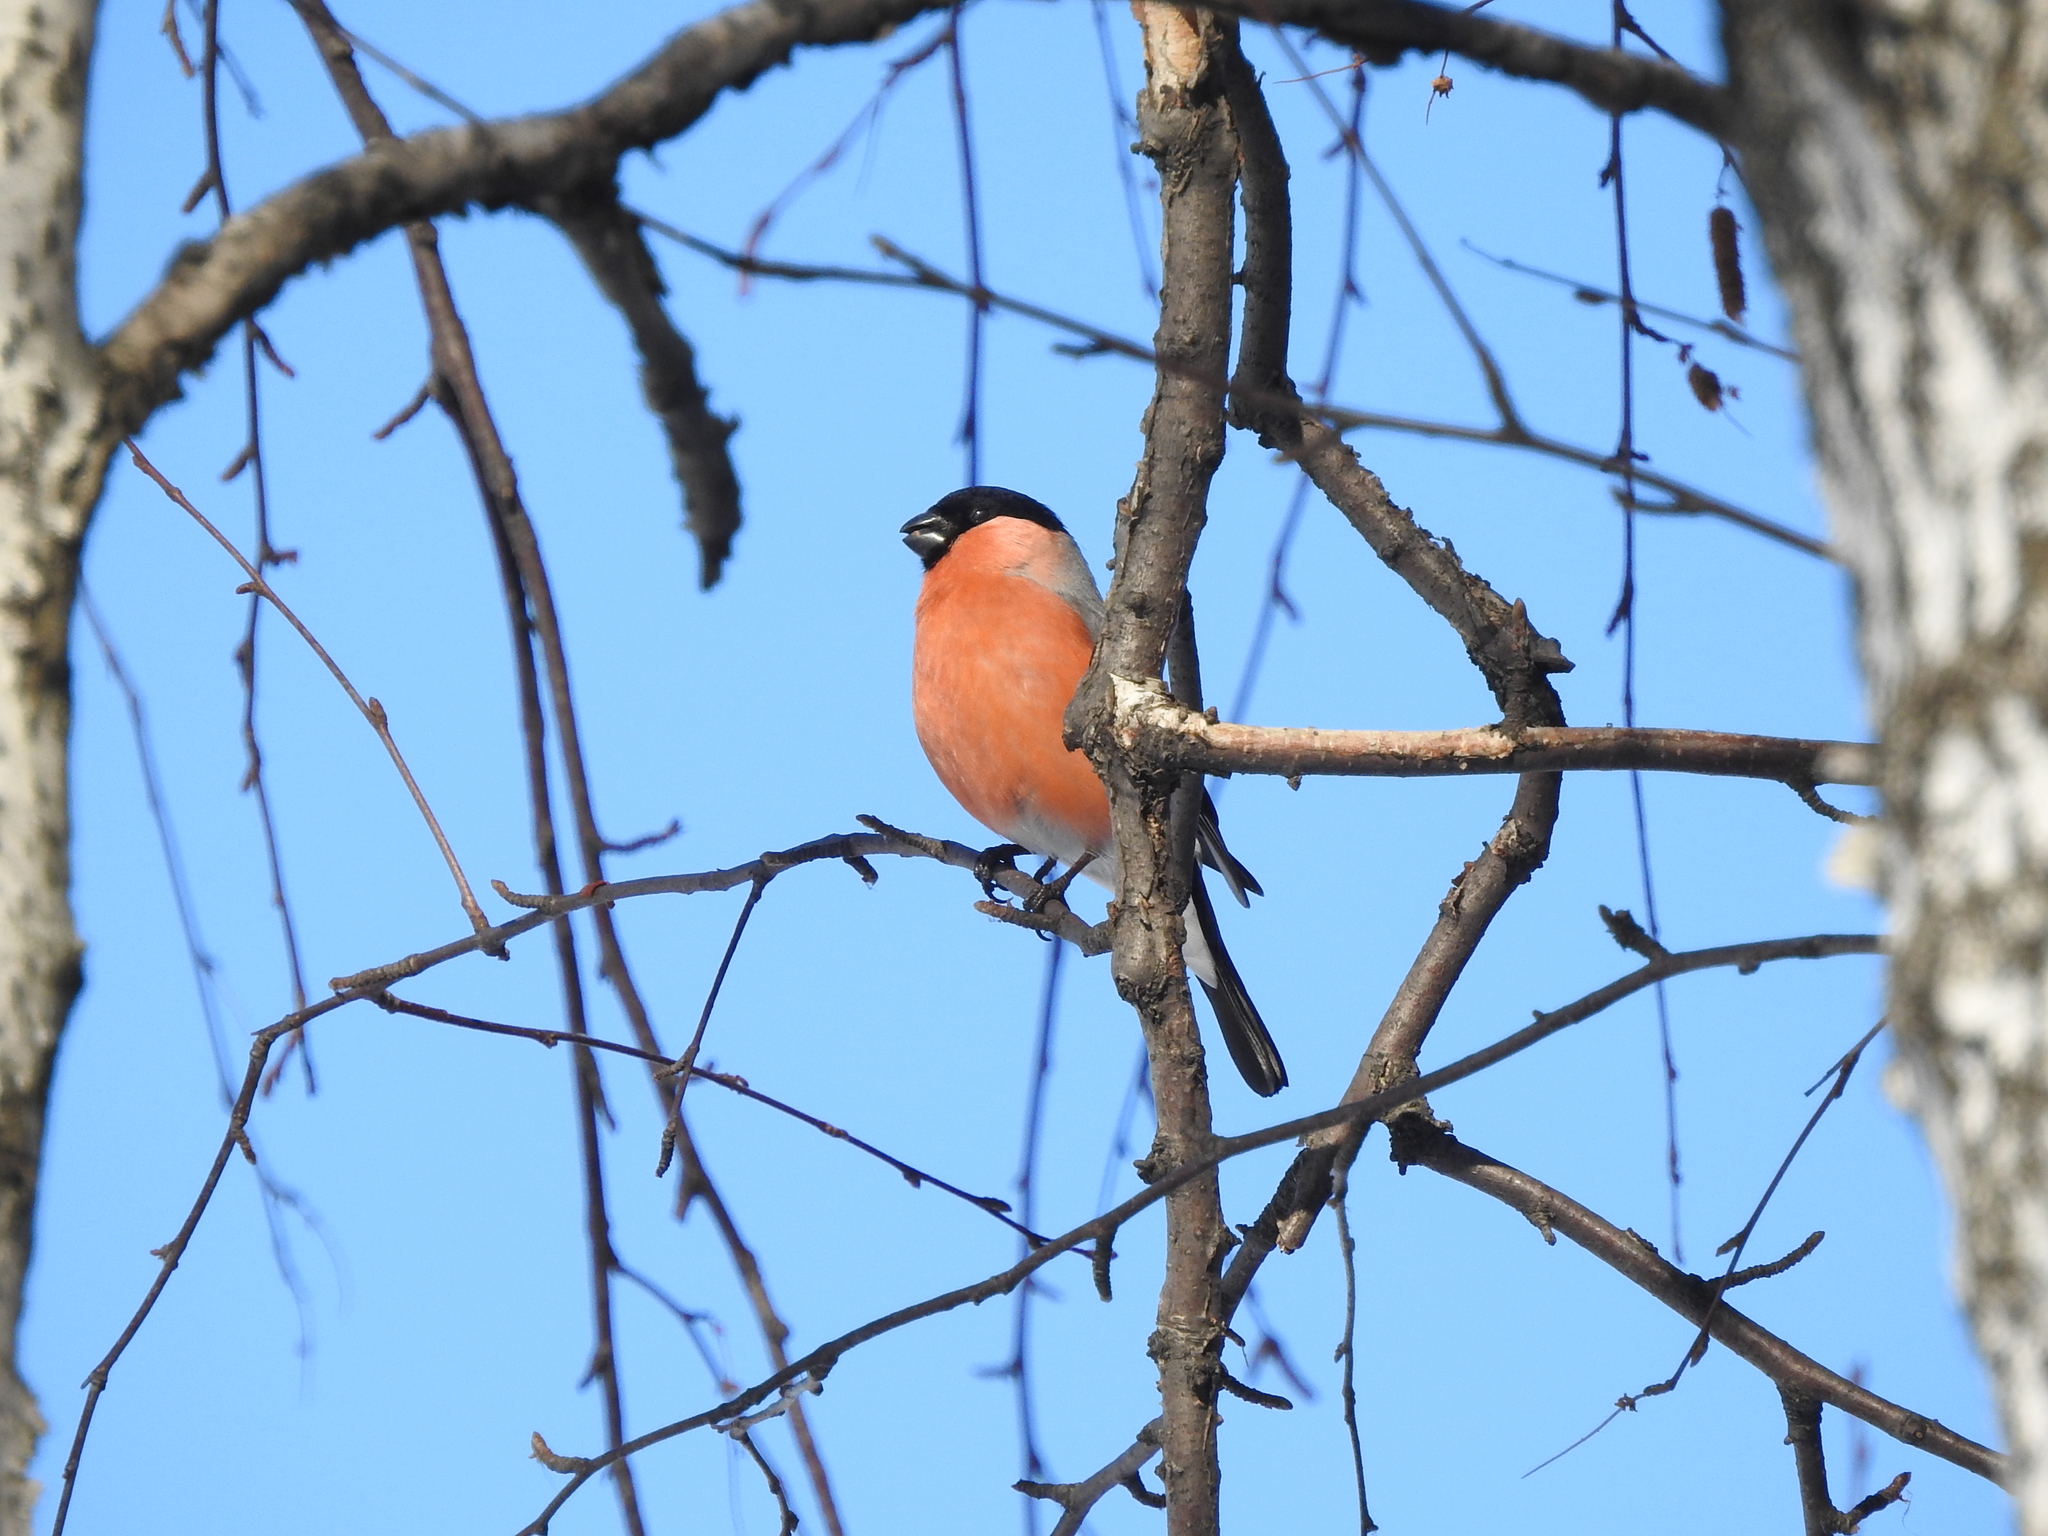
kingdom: Animalia
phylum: Chordata
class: Aves
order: Passeriformes
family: Fringillidae
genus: Pyrrhula
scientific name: Pyrrhula pyrrhula
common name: Eurasian bullfinch
